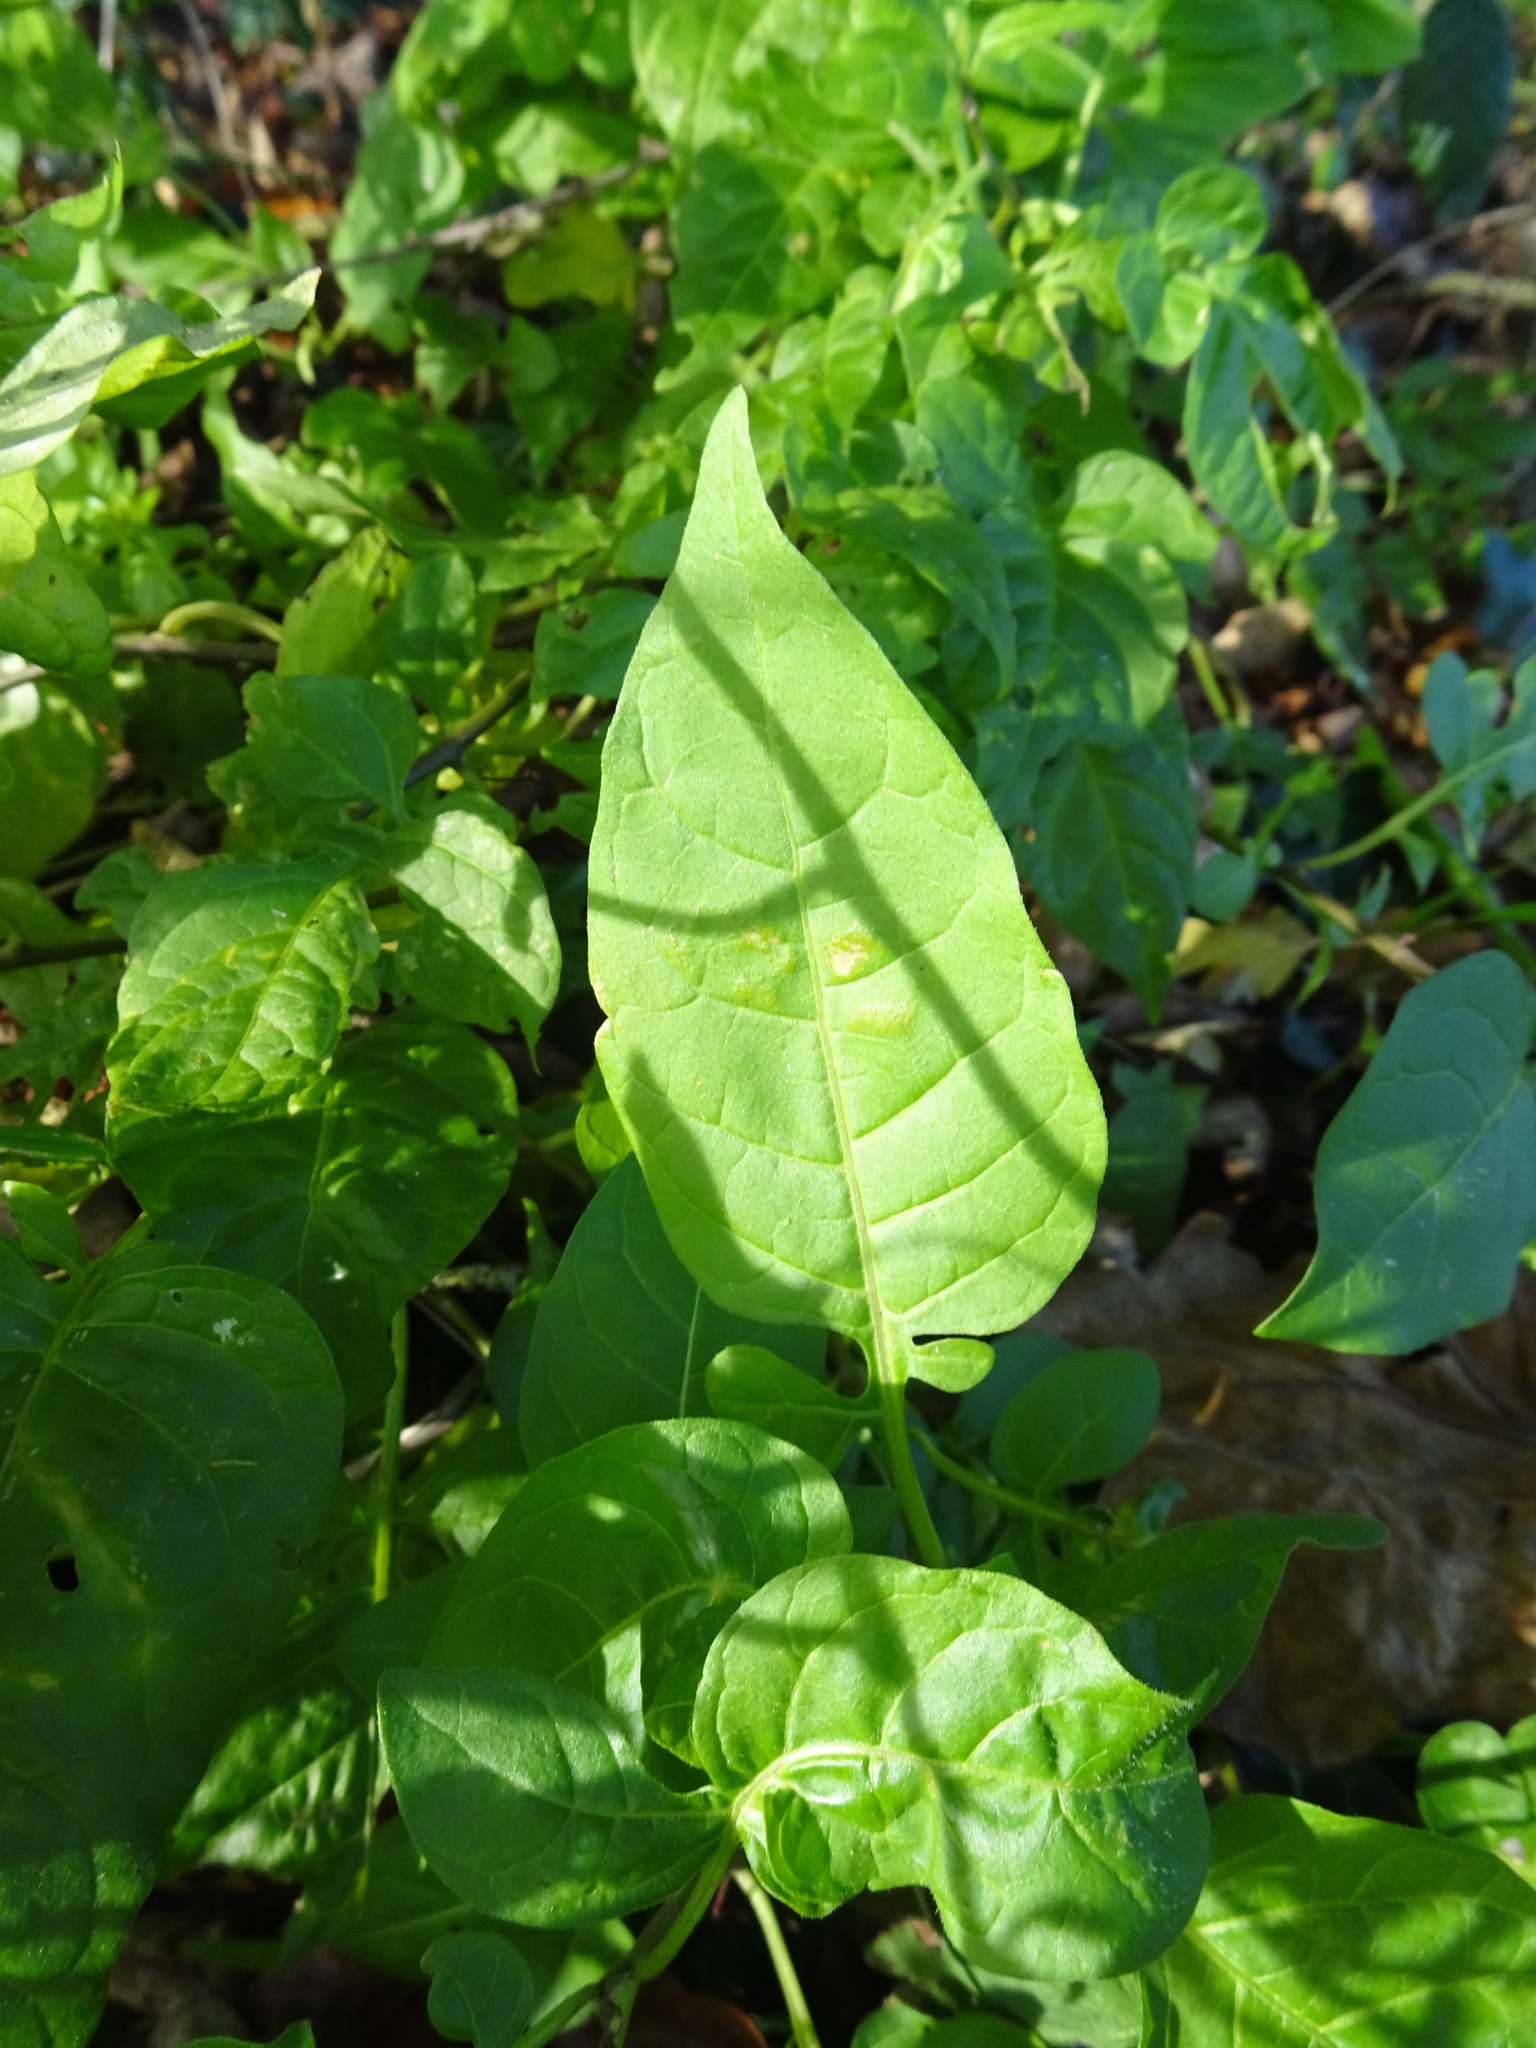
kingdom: Plantae
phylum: Tracheophyta
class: Magnoliopsida
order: Solanales
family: Solanaceae
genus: Solanum
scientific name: Solanum dulcamara
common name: Climbing nightshade
